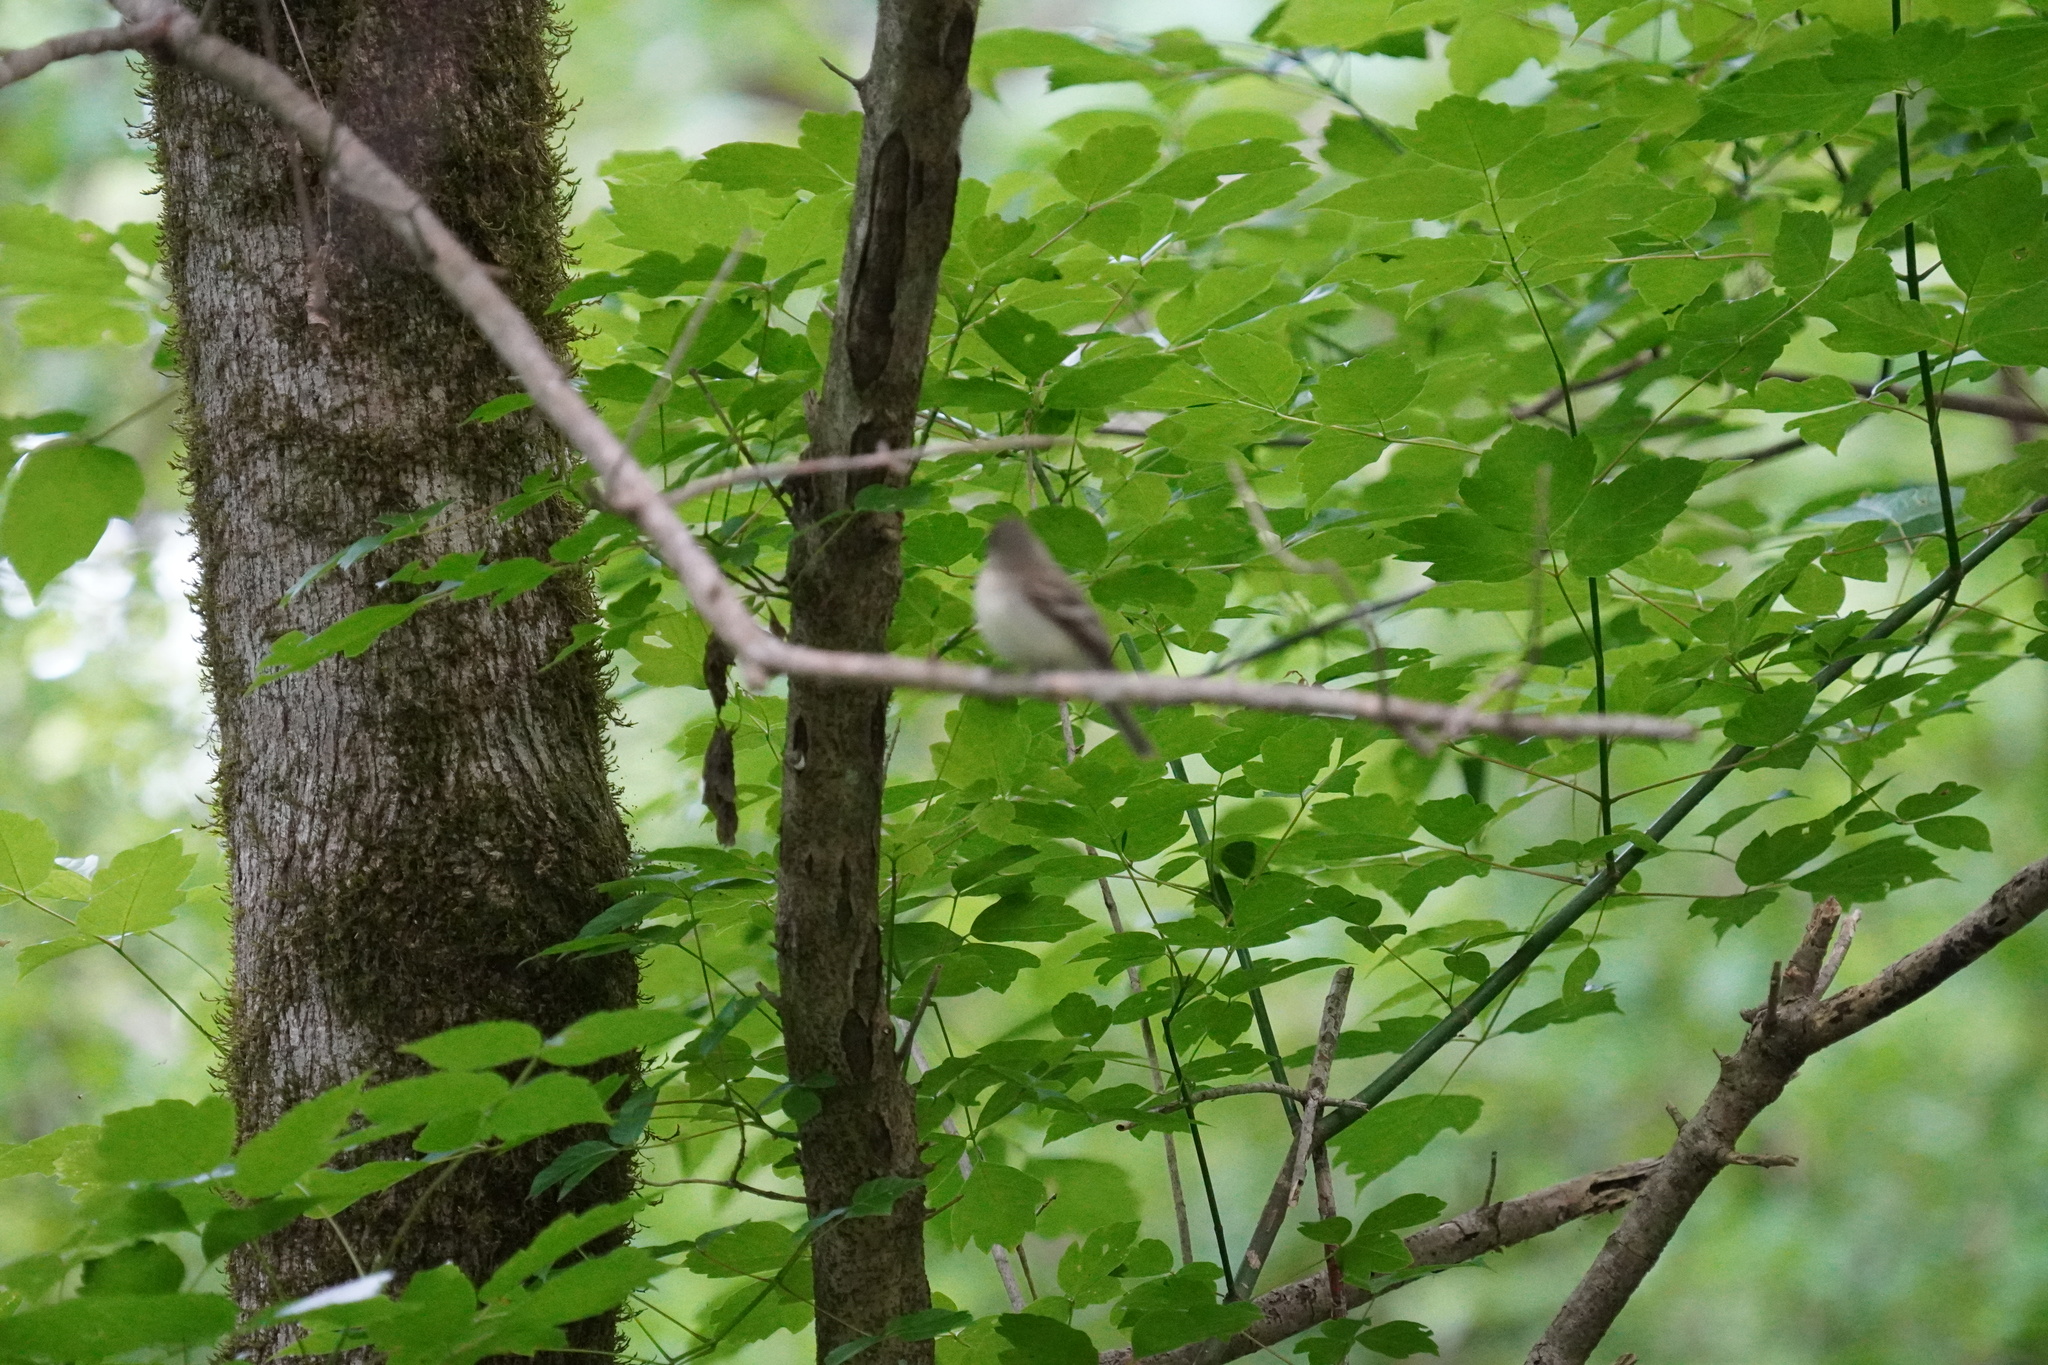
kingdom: Animalia
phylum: Chordata
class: Aves
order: Passeriformes
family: Tyrannidae
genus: Empidonax
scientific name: Empidonax virescens
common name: Acadian flycatcher
